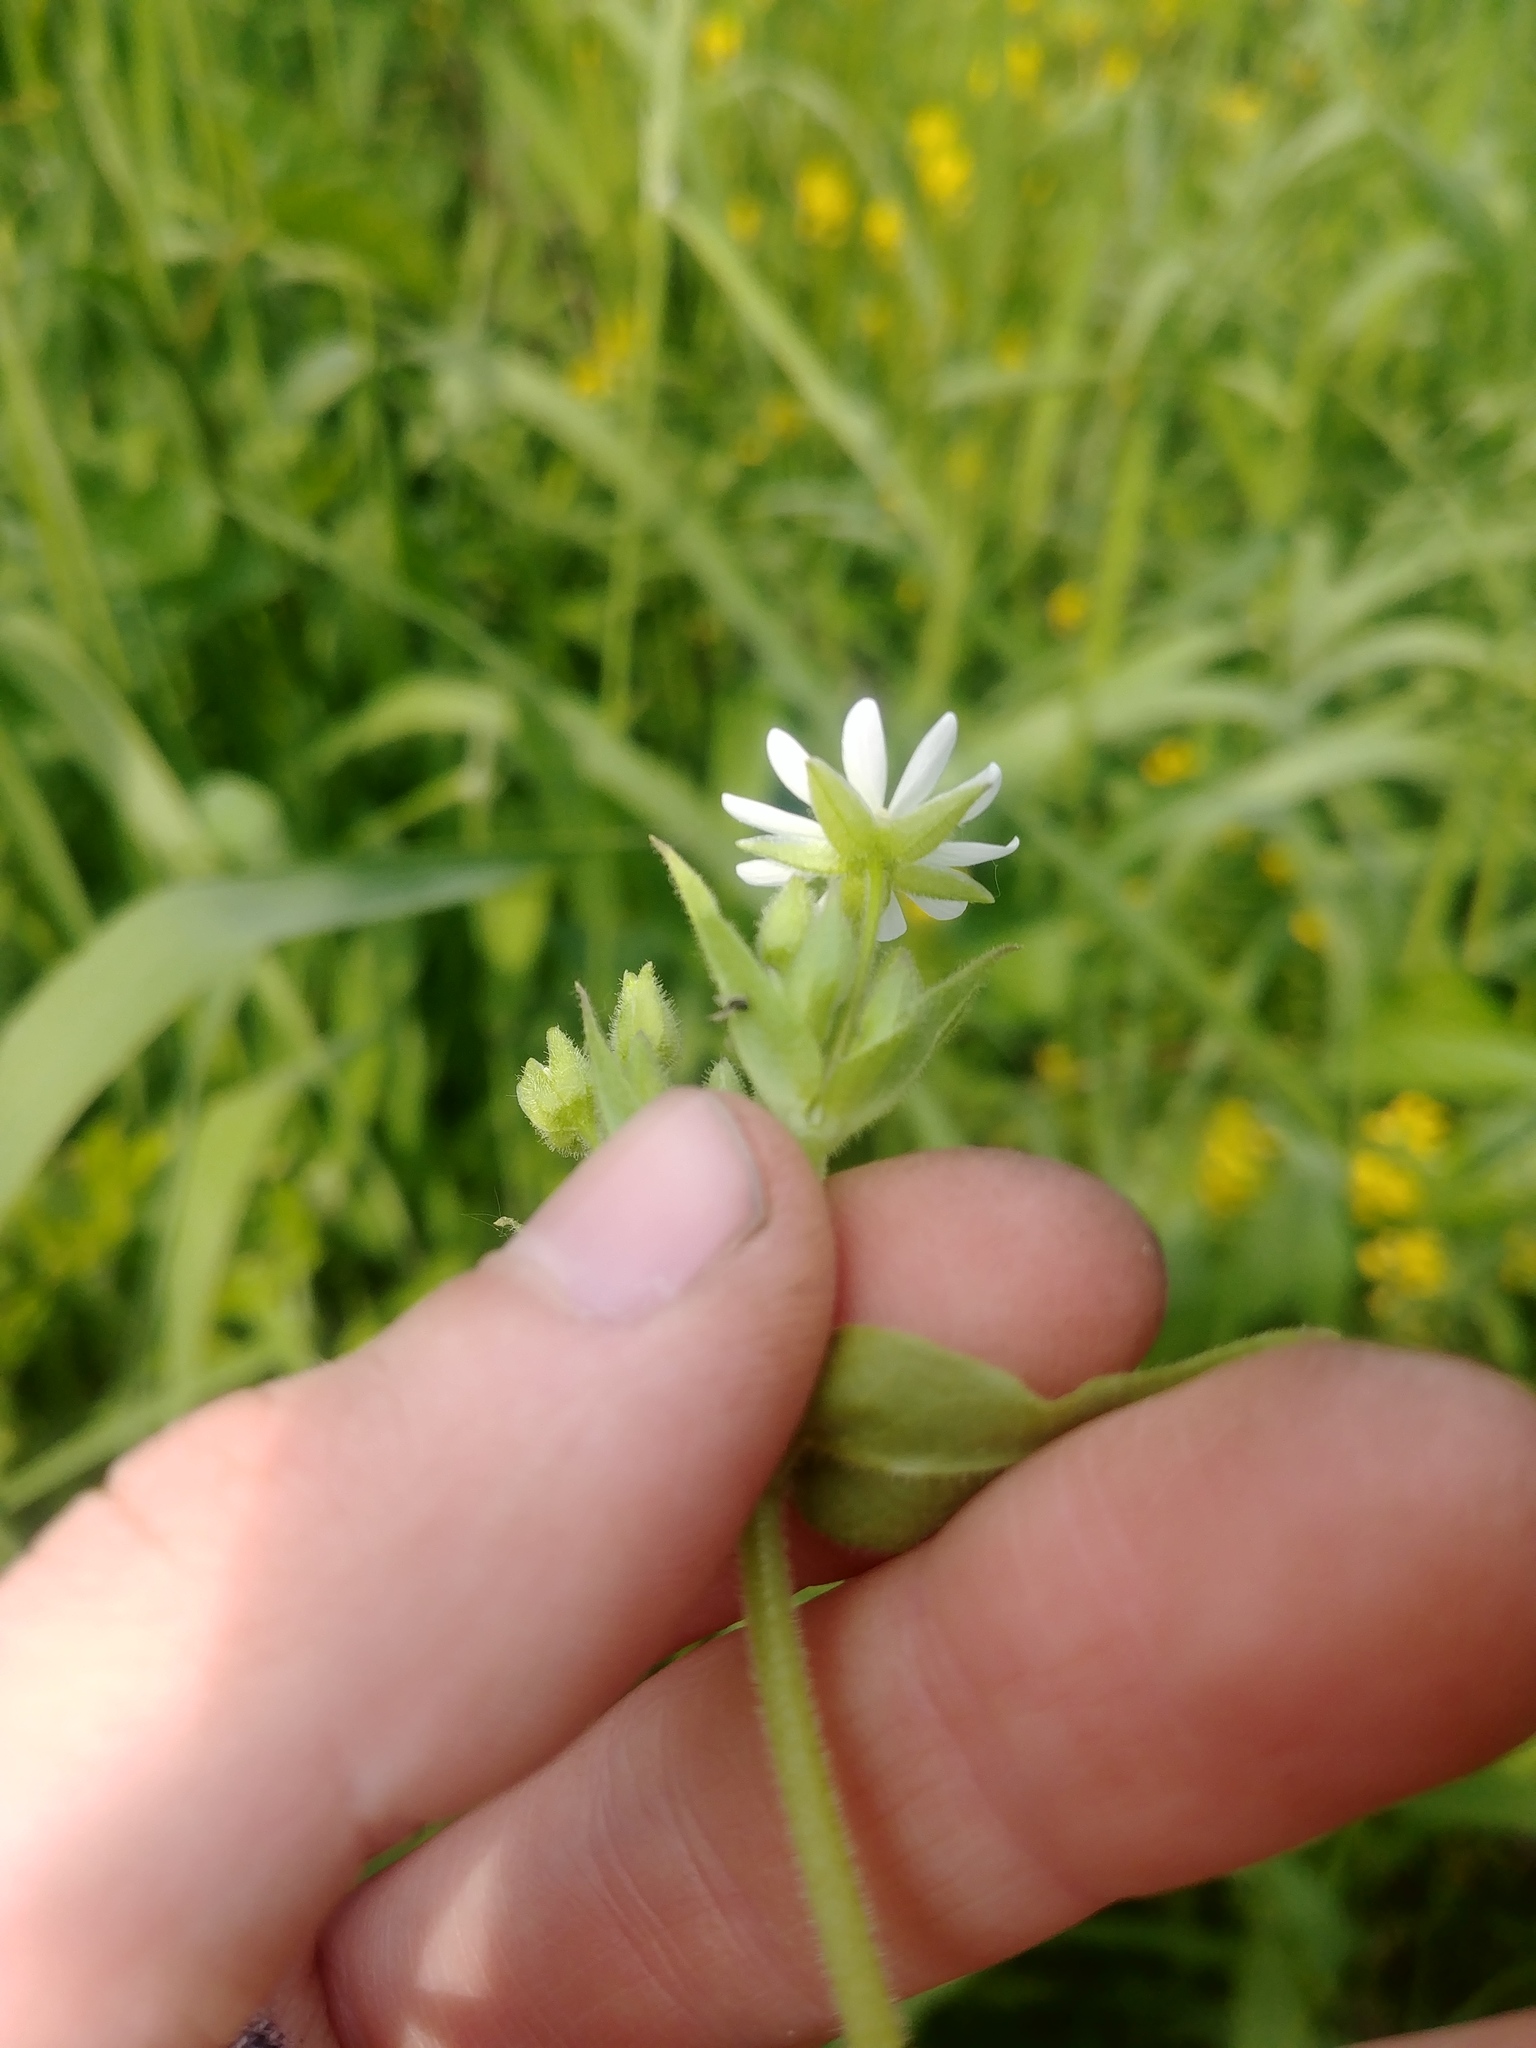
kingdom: Plantae
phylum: Tracheophyta
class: Magnoliopsida
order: Caryophyllales
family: Caryophyllaceae
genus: Stellaria
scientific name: Stellaria aquatica
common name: Water chickweed
